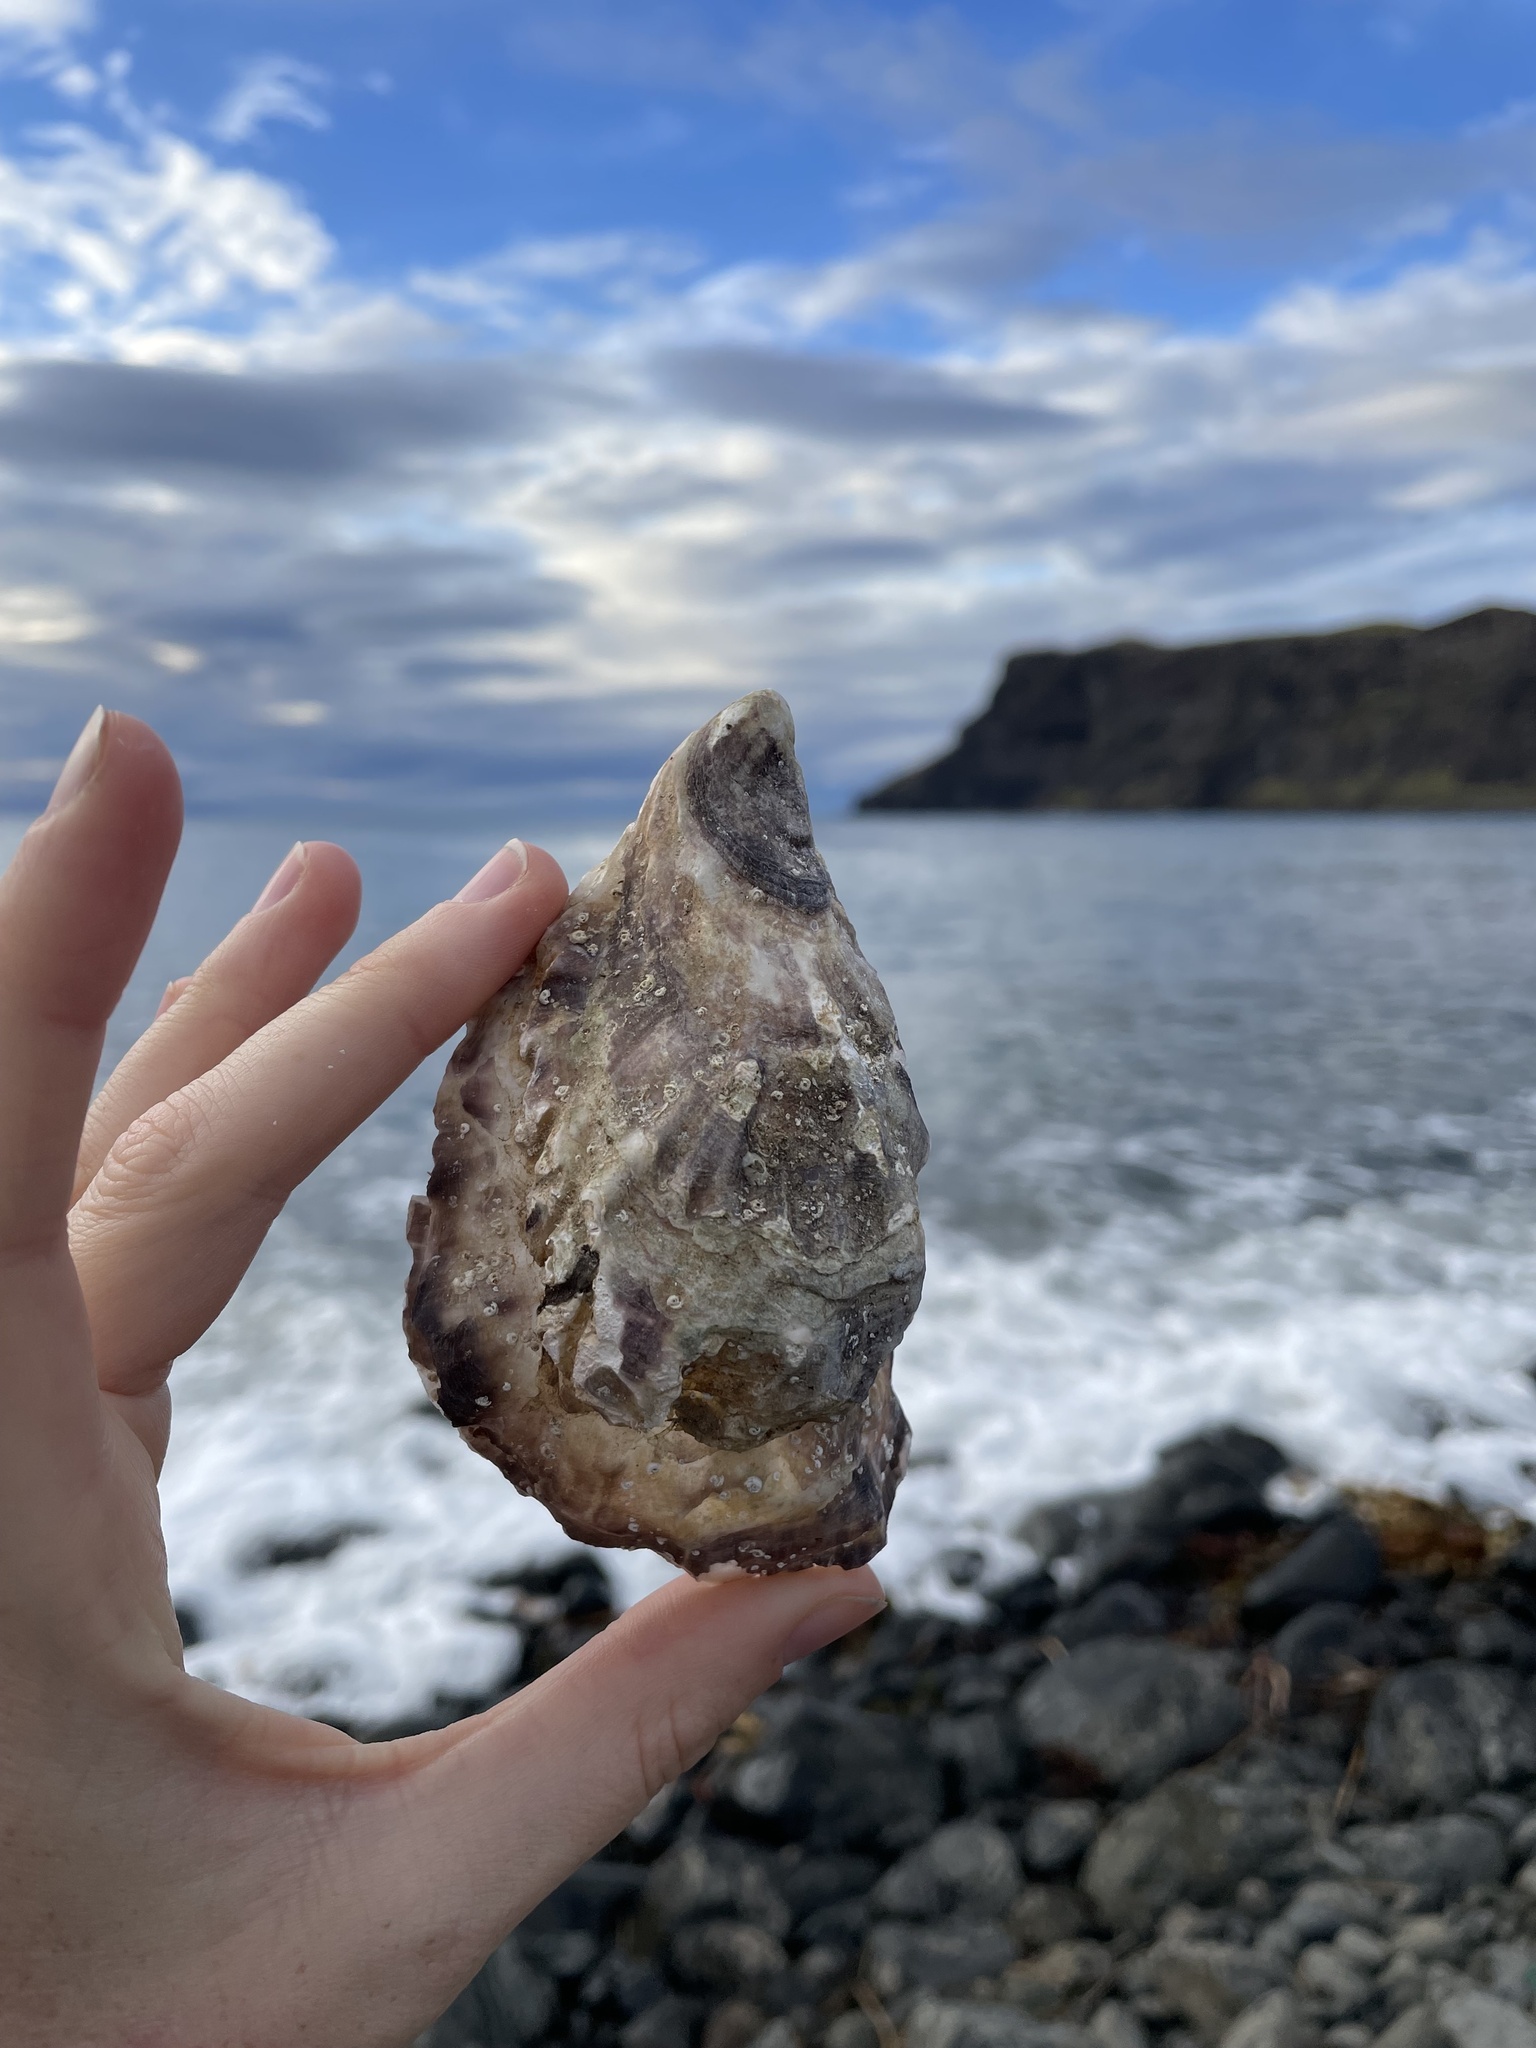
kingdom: Animalia
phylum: Mollusca
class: Bivalvia
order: Ostreida
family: Ostreidae
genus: Magallana
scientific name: Magallana gigas
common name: Pacific oyster
